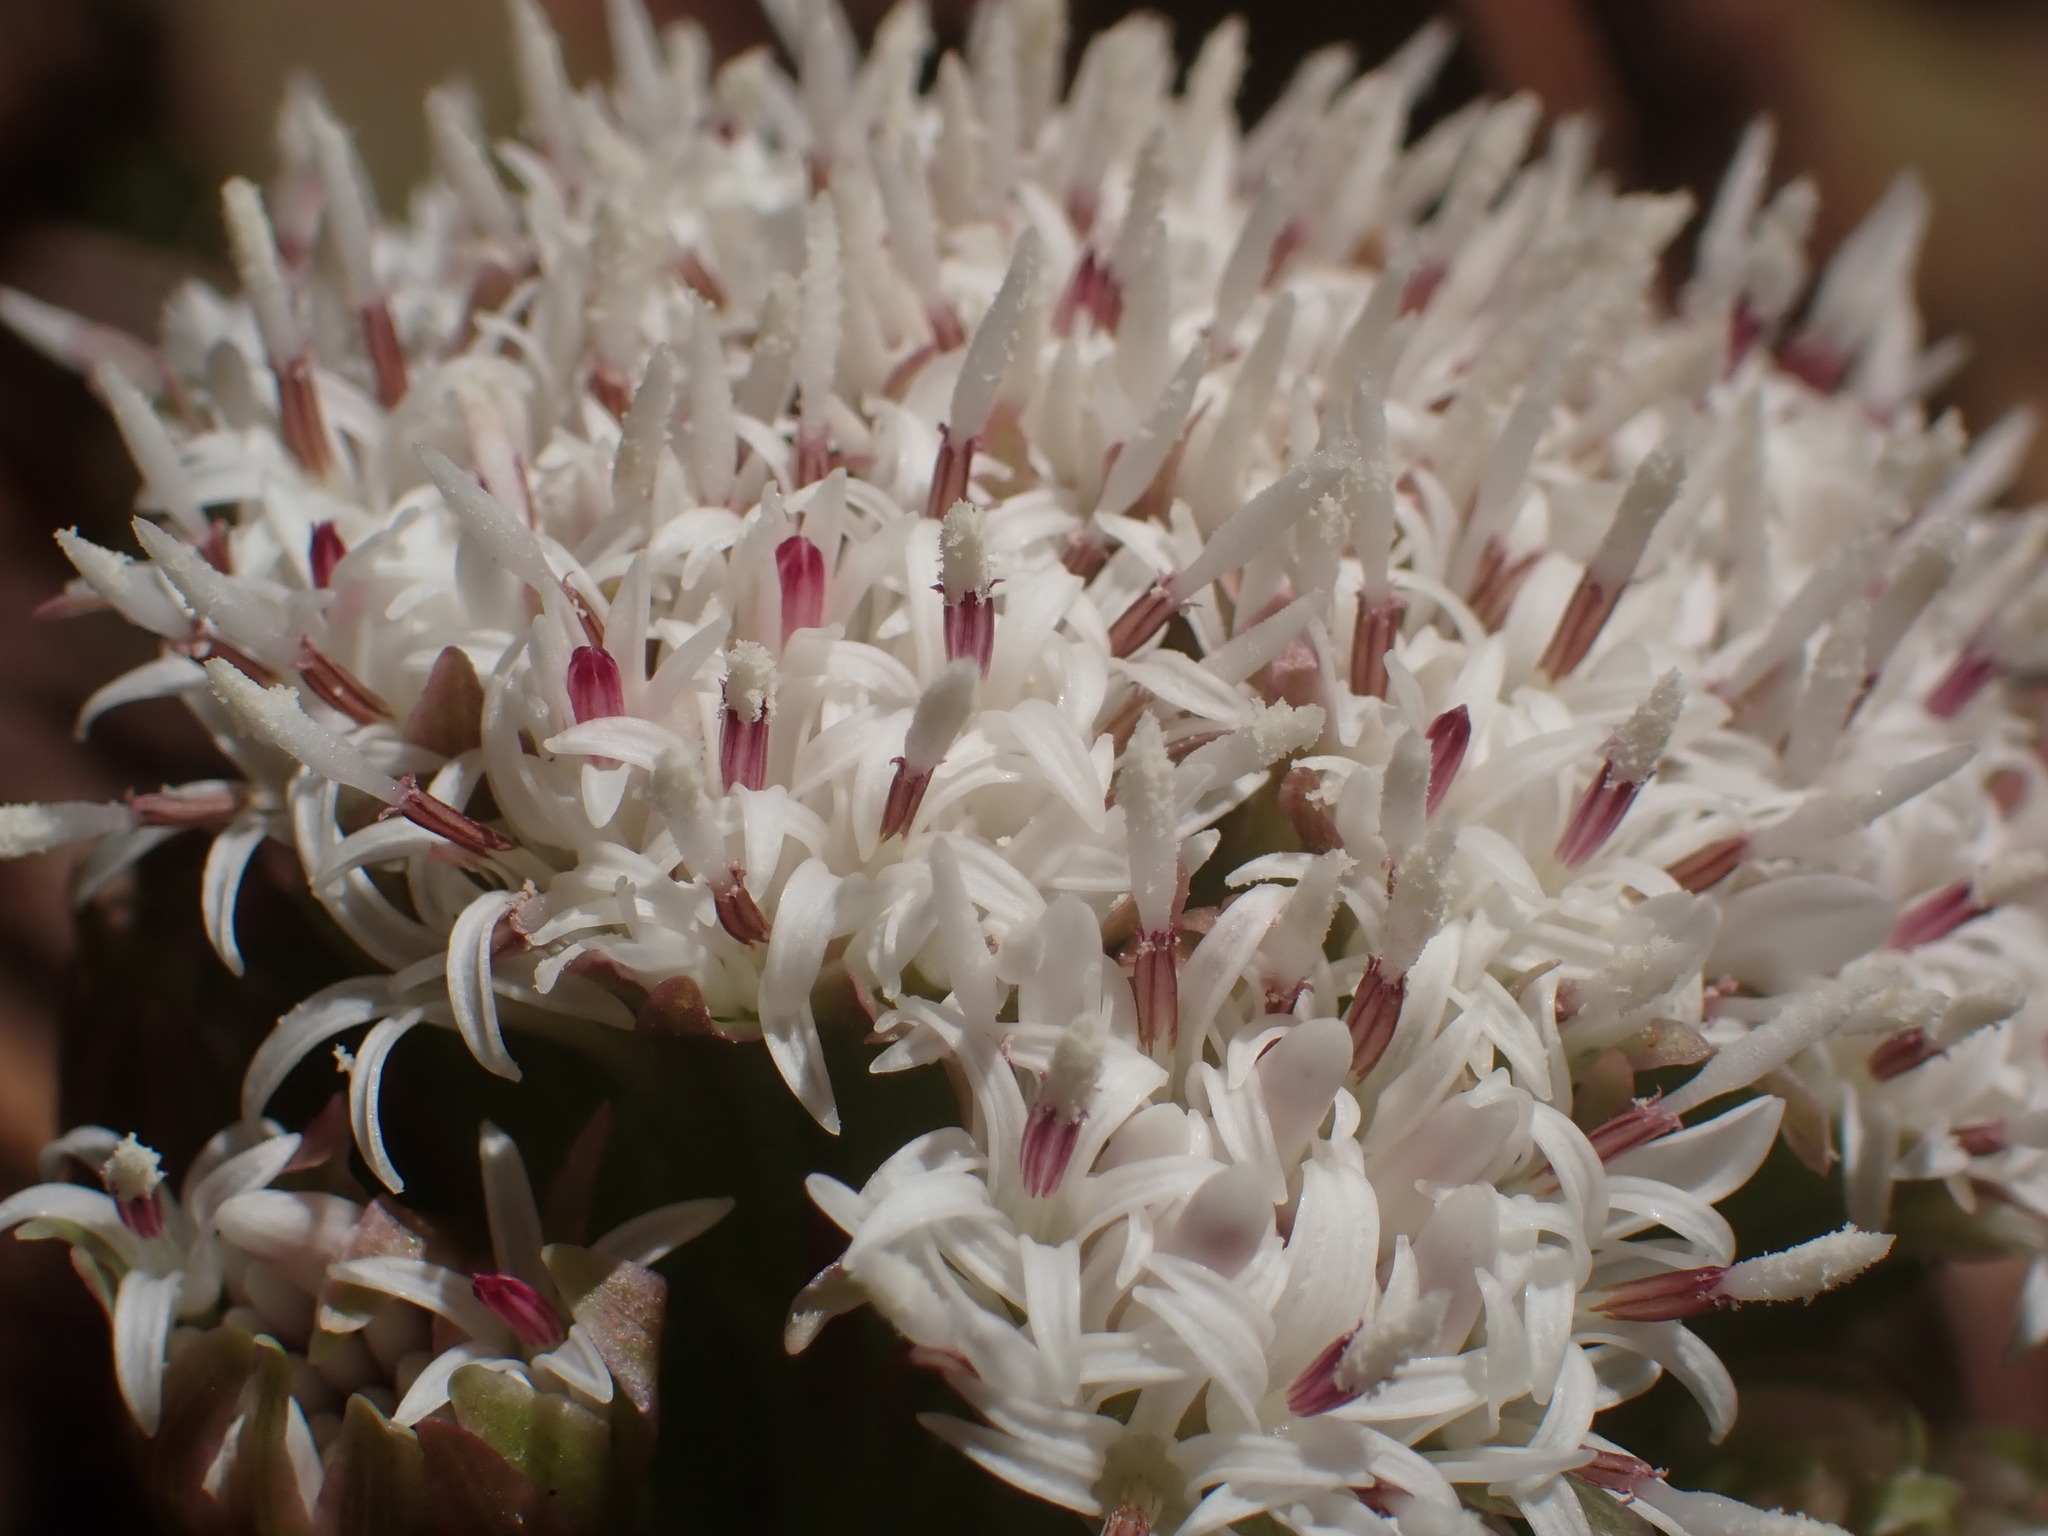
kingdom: Plantae
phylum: Tracheophyta
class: Magnoliopsida
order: Asterales
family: Asteraceae
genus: Petasites
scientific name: Petasites frigidus
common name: Arctic butterbur
